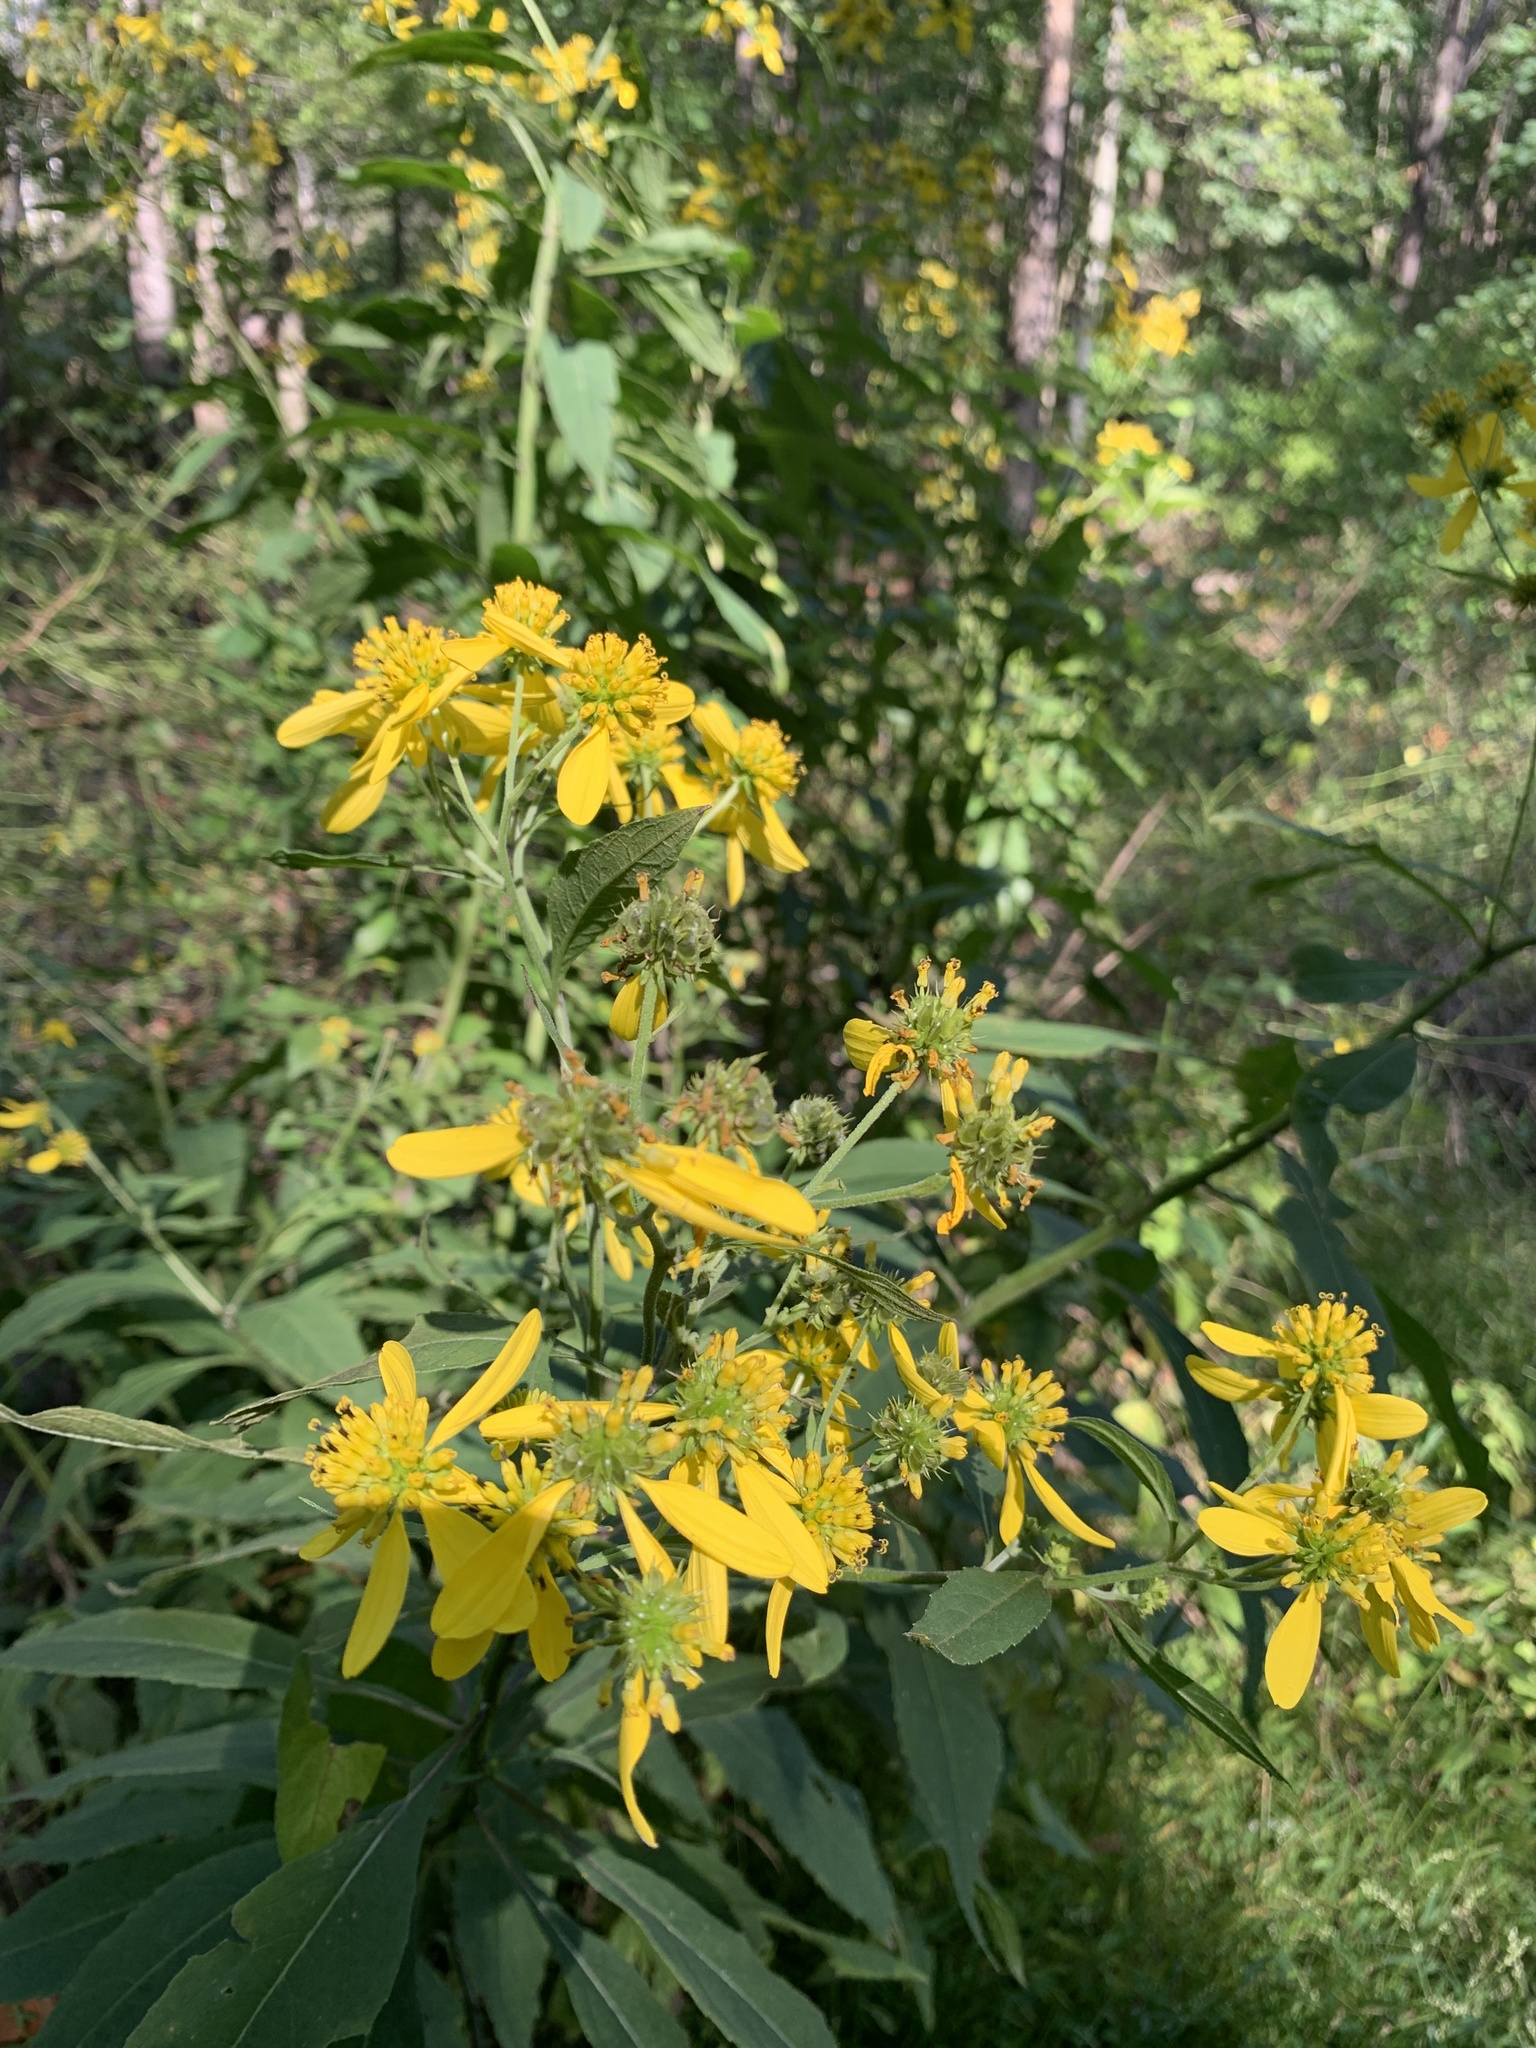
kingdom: Plantae
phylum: Tracheophyta
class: Magnoliopsida
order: Asterales
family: Asteraceae
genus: Verbesina
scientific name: Verbesina alternifolia
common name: Wingstem
